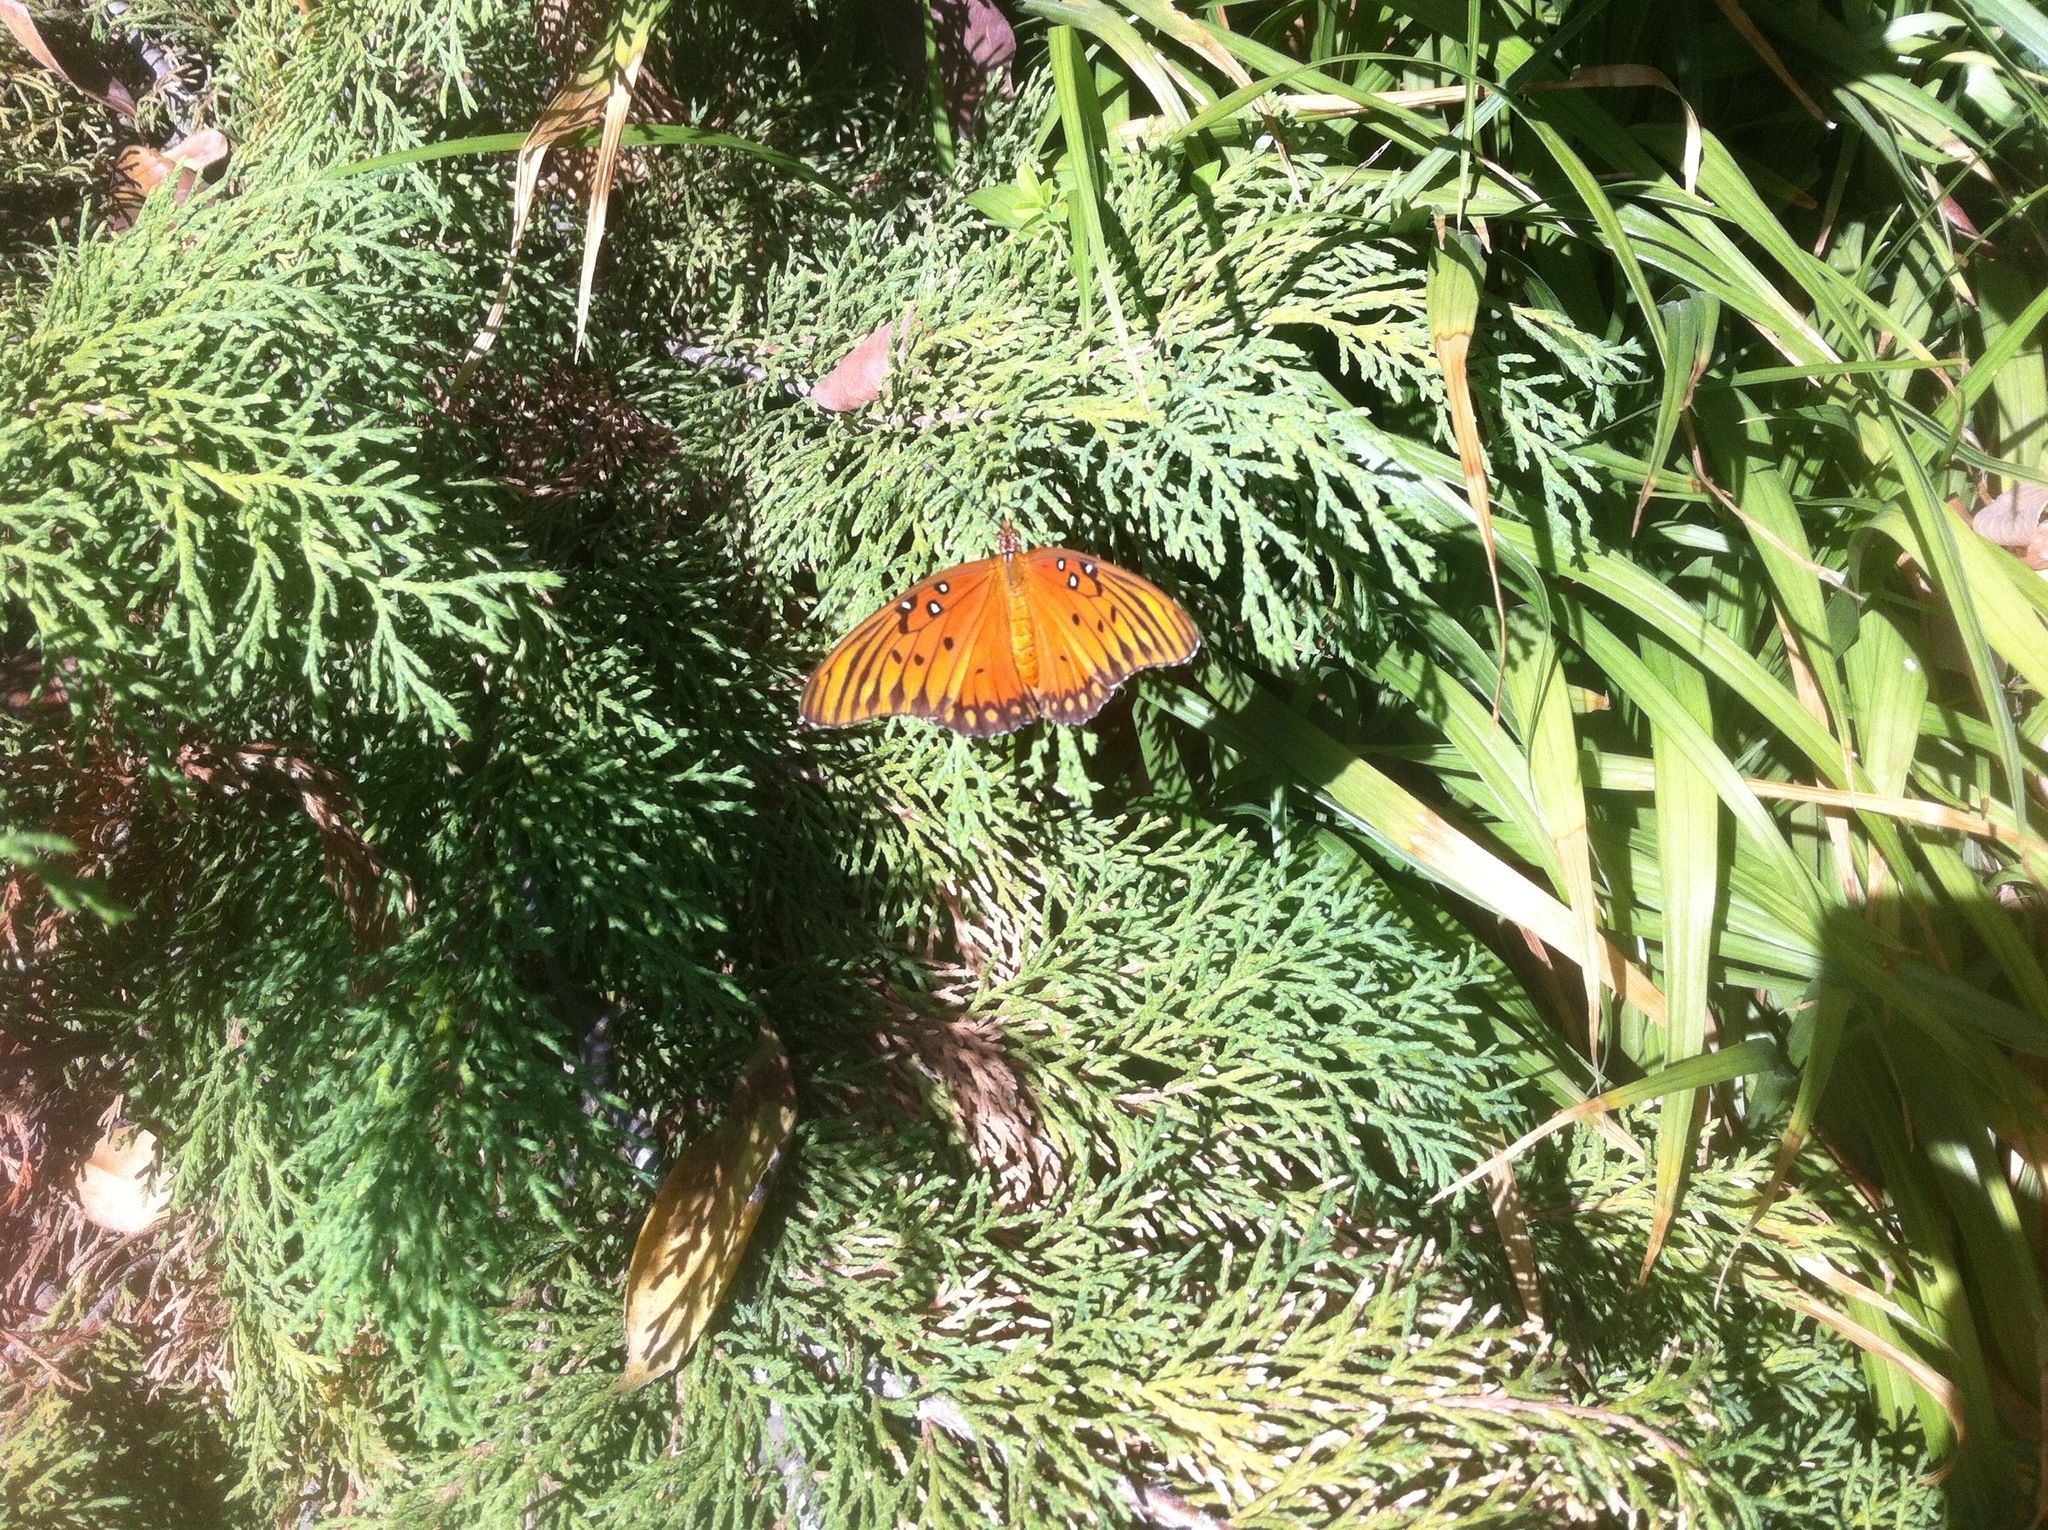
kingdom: Animalia
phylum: Arthropoda
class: Insecta
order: Lepidoptera
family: Nymphalidae
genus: Dione
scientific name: Dione vanillae
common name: Gulf fritillary
